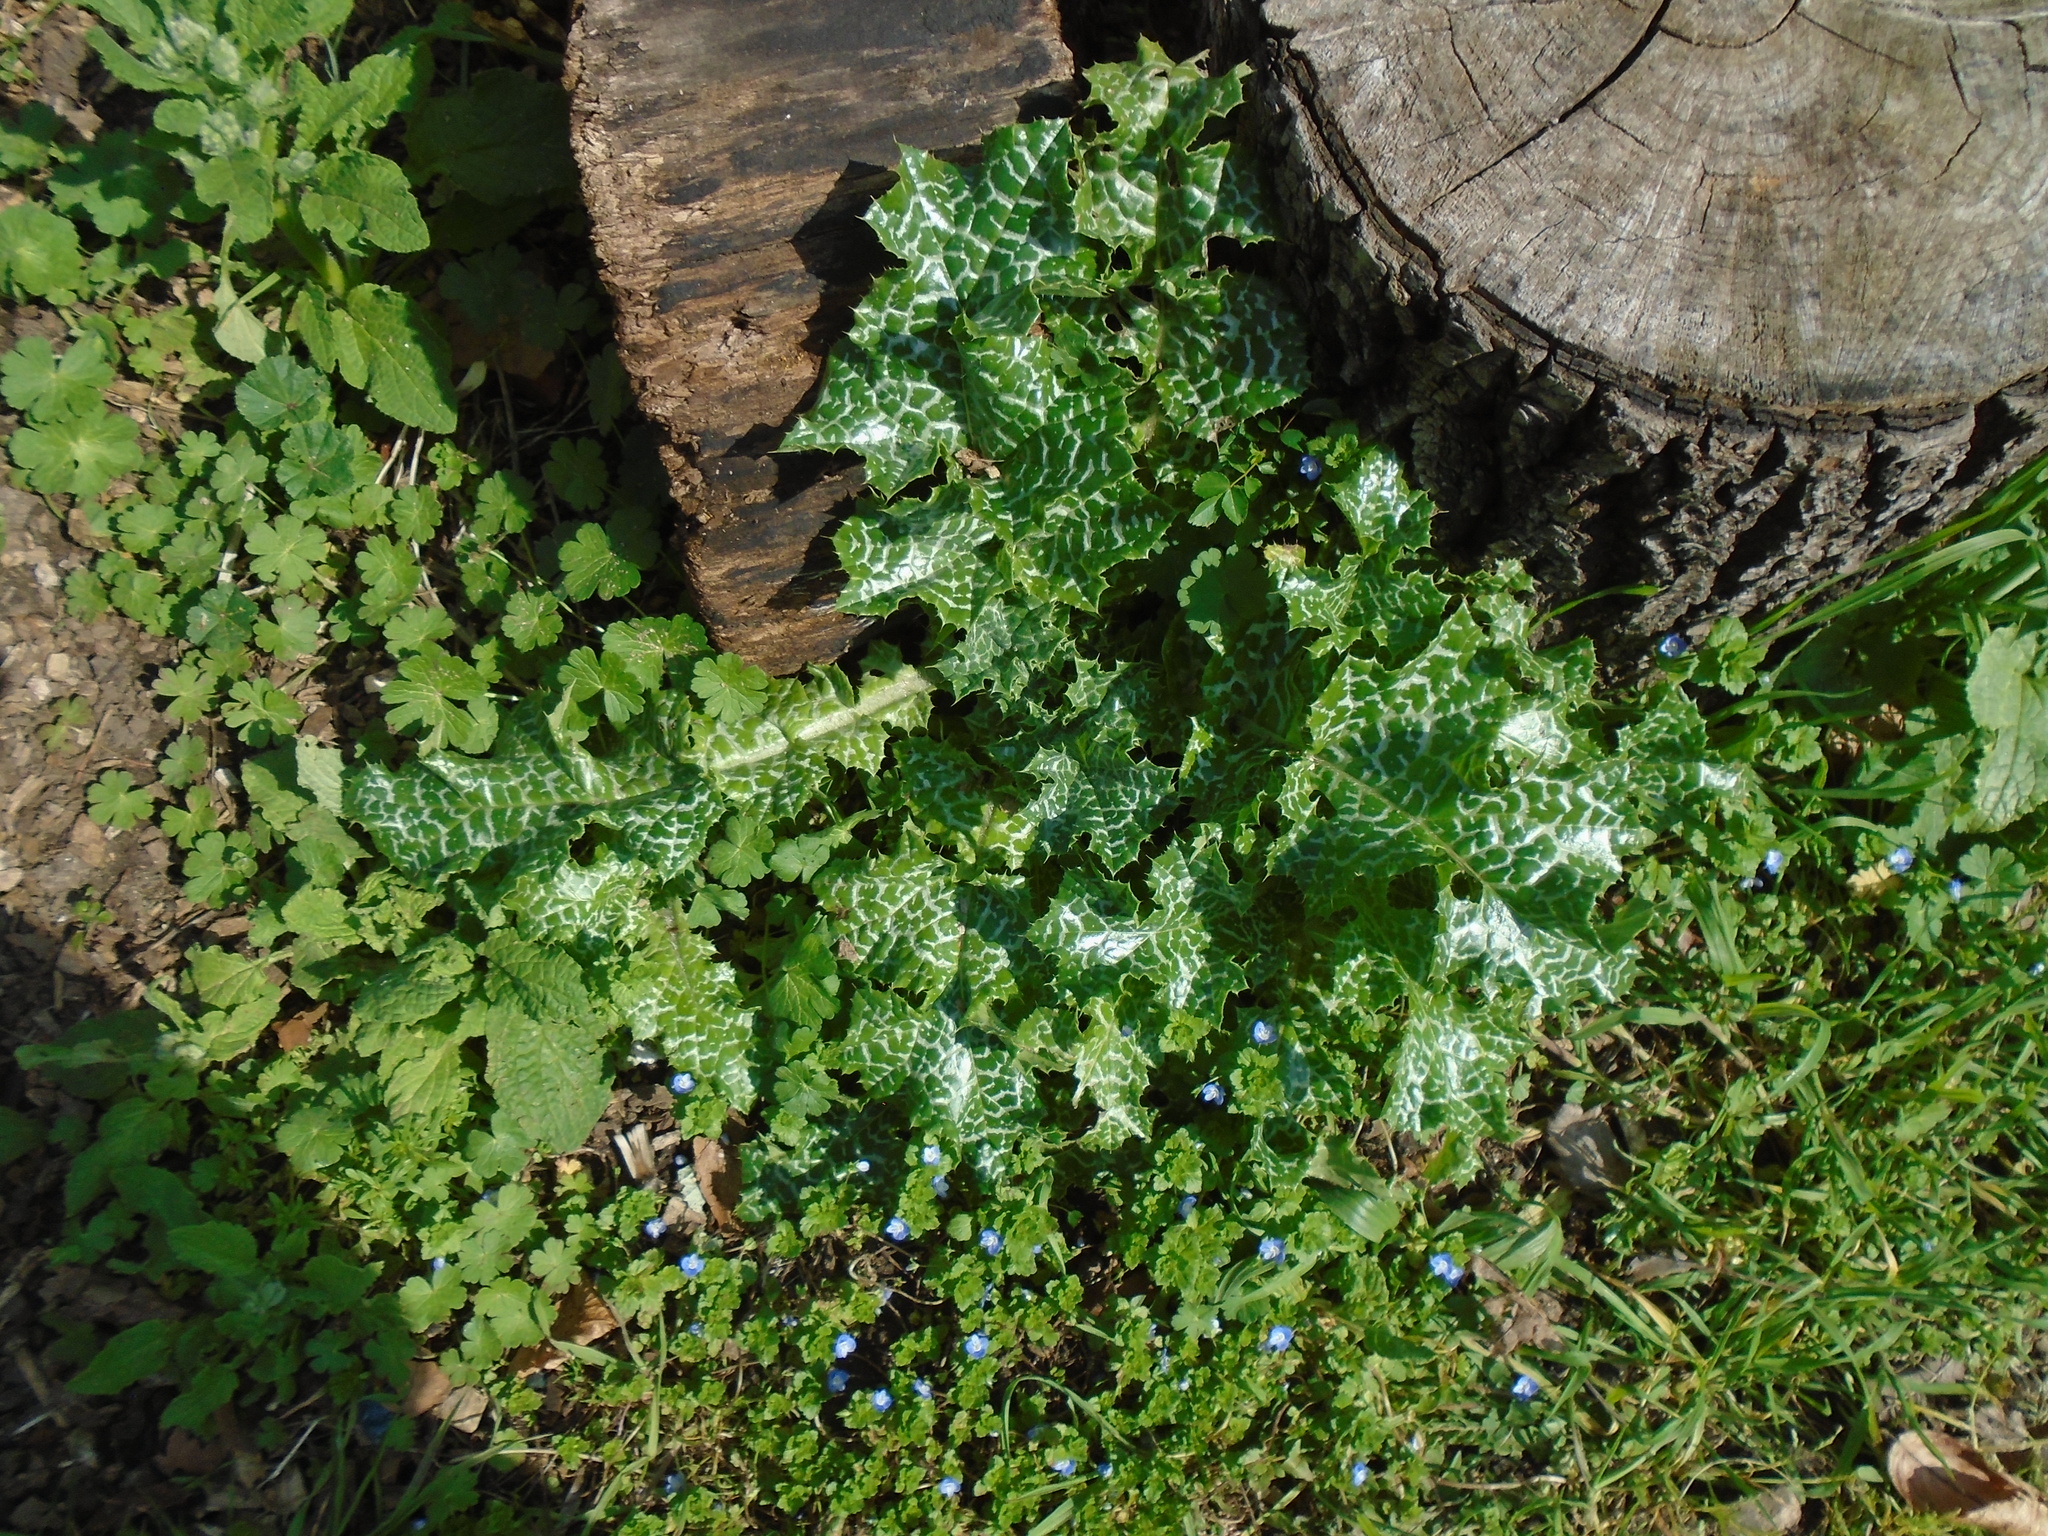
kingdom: Plantae
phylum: Tracheophyta
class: Magnoliopsida
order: Asterales
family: Asteraceae
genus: Silybum
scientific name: Silybum marianum
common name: Milk thistle
